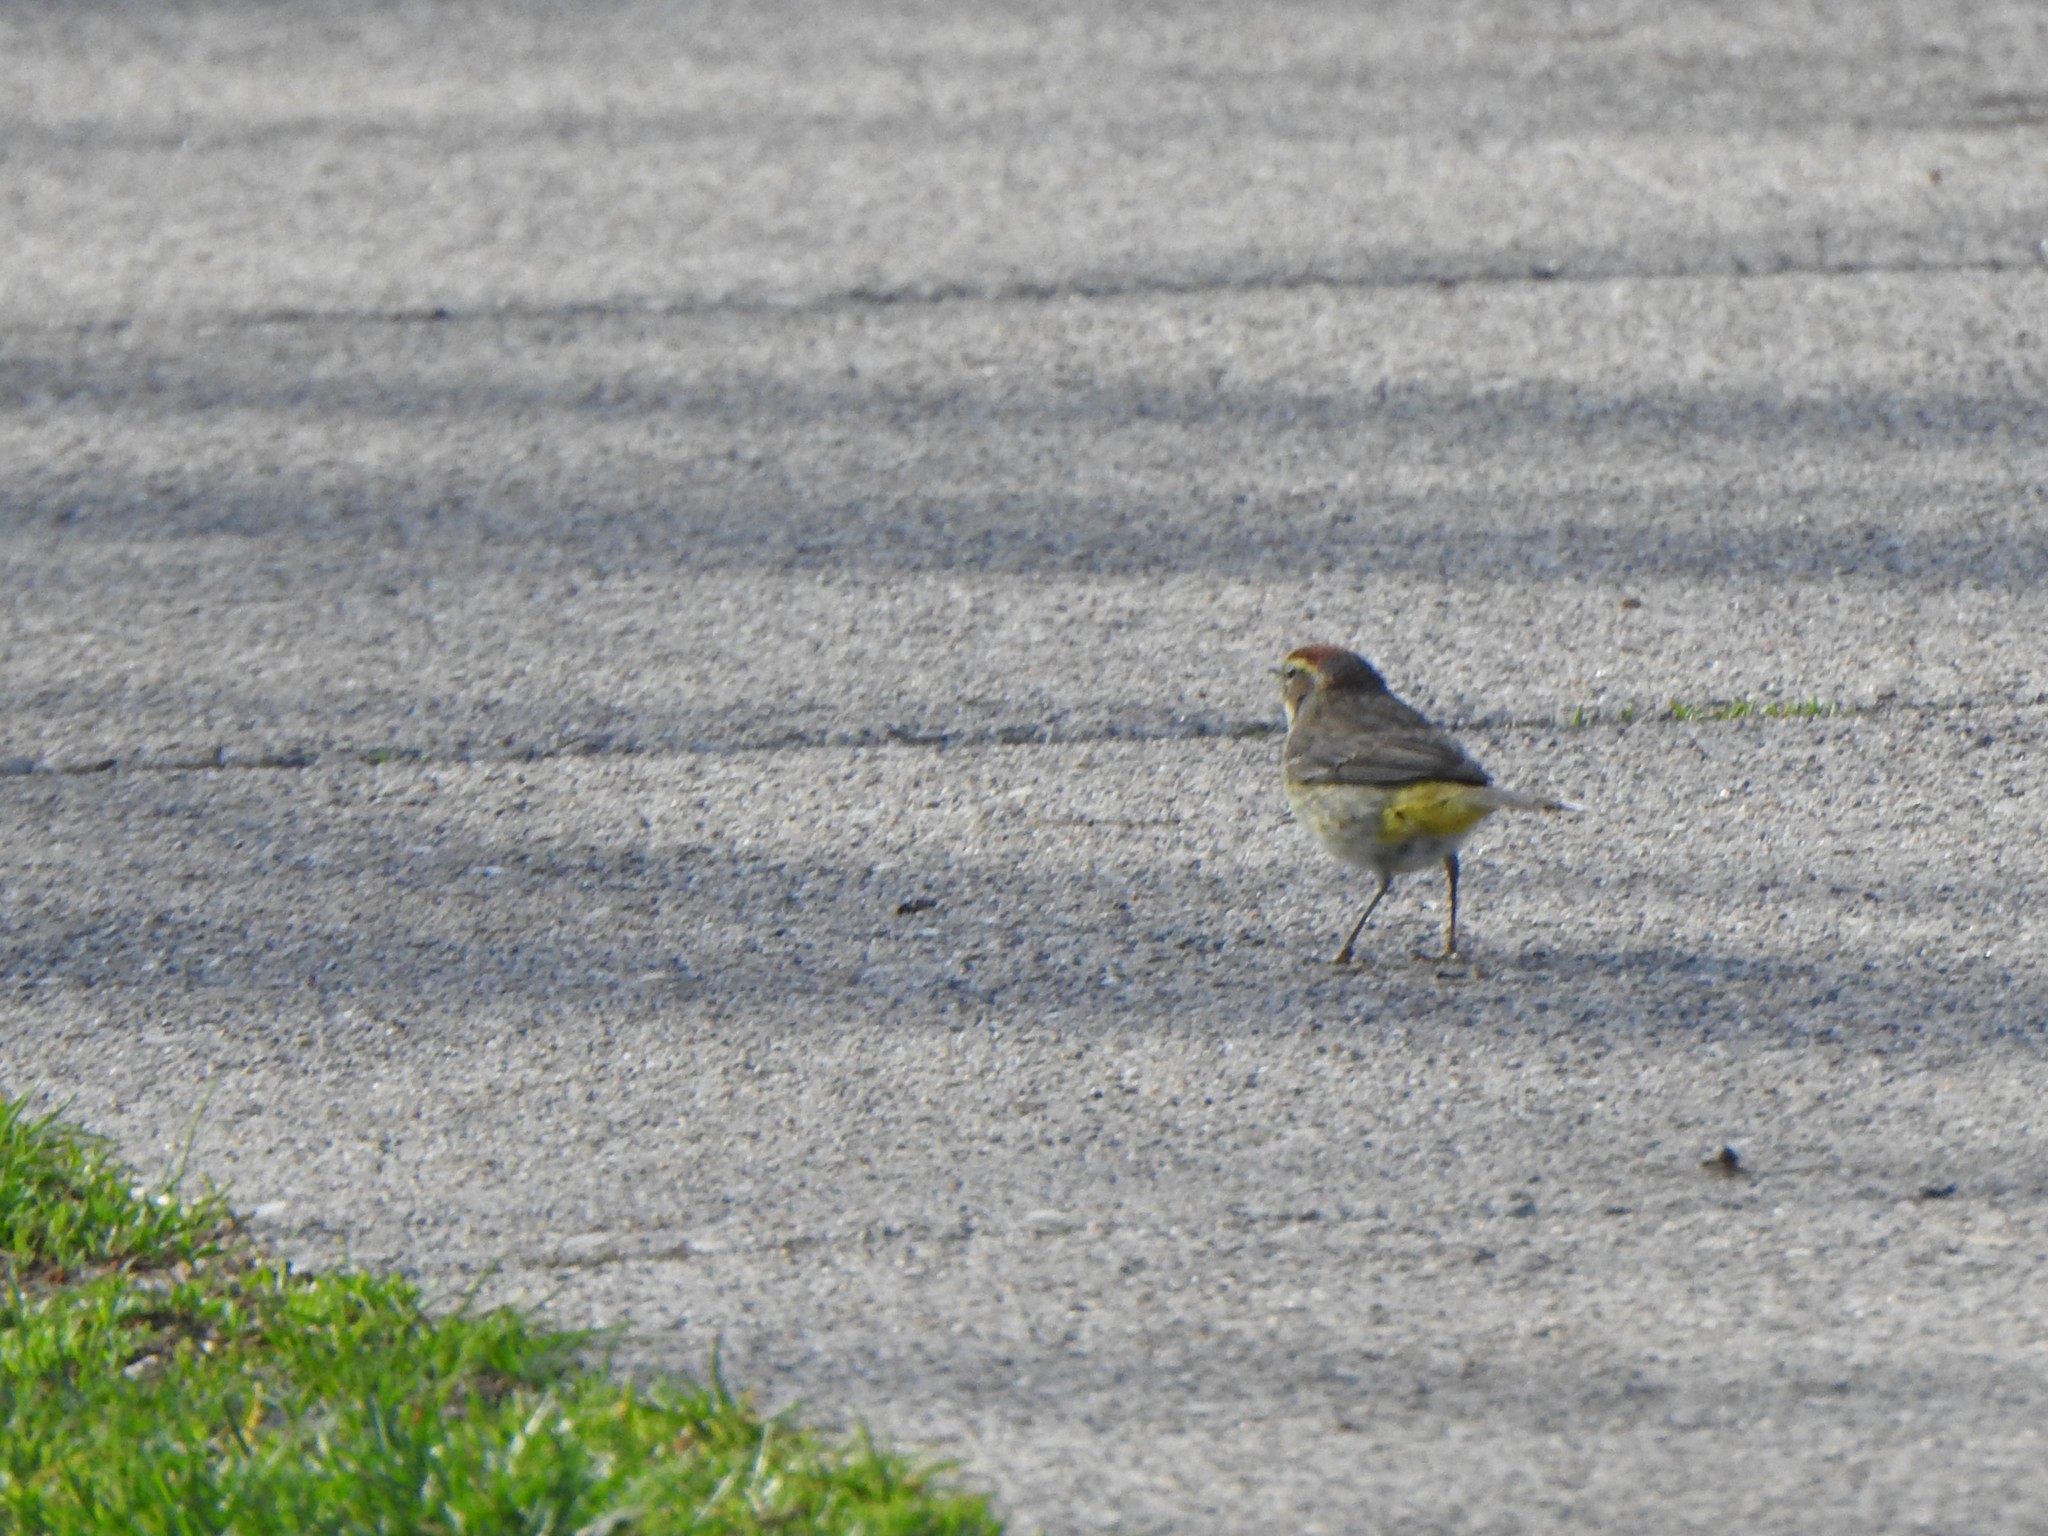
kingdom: Animalia
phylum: Chordata
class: Aves
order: Passeriformes
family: Parulidae
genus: Setophaga
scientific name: Setophaga palmarum
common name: Palm warbler
